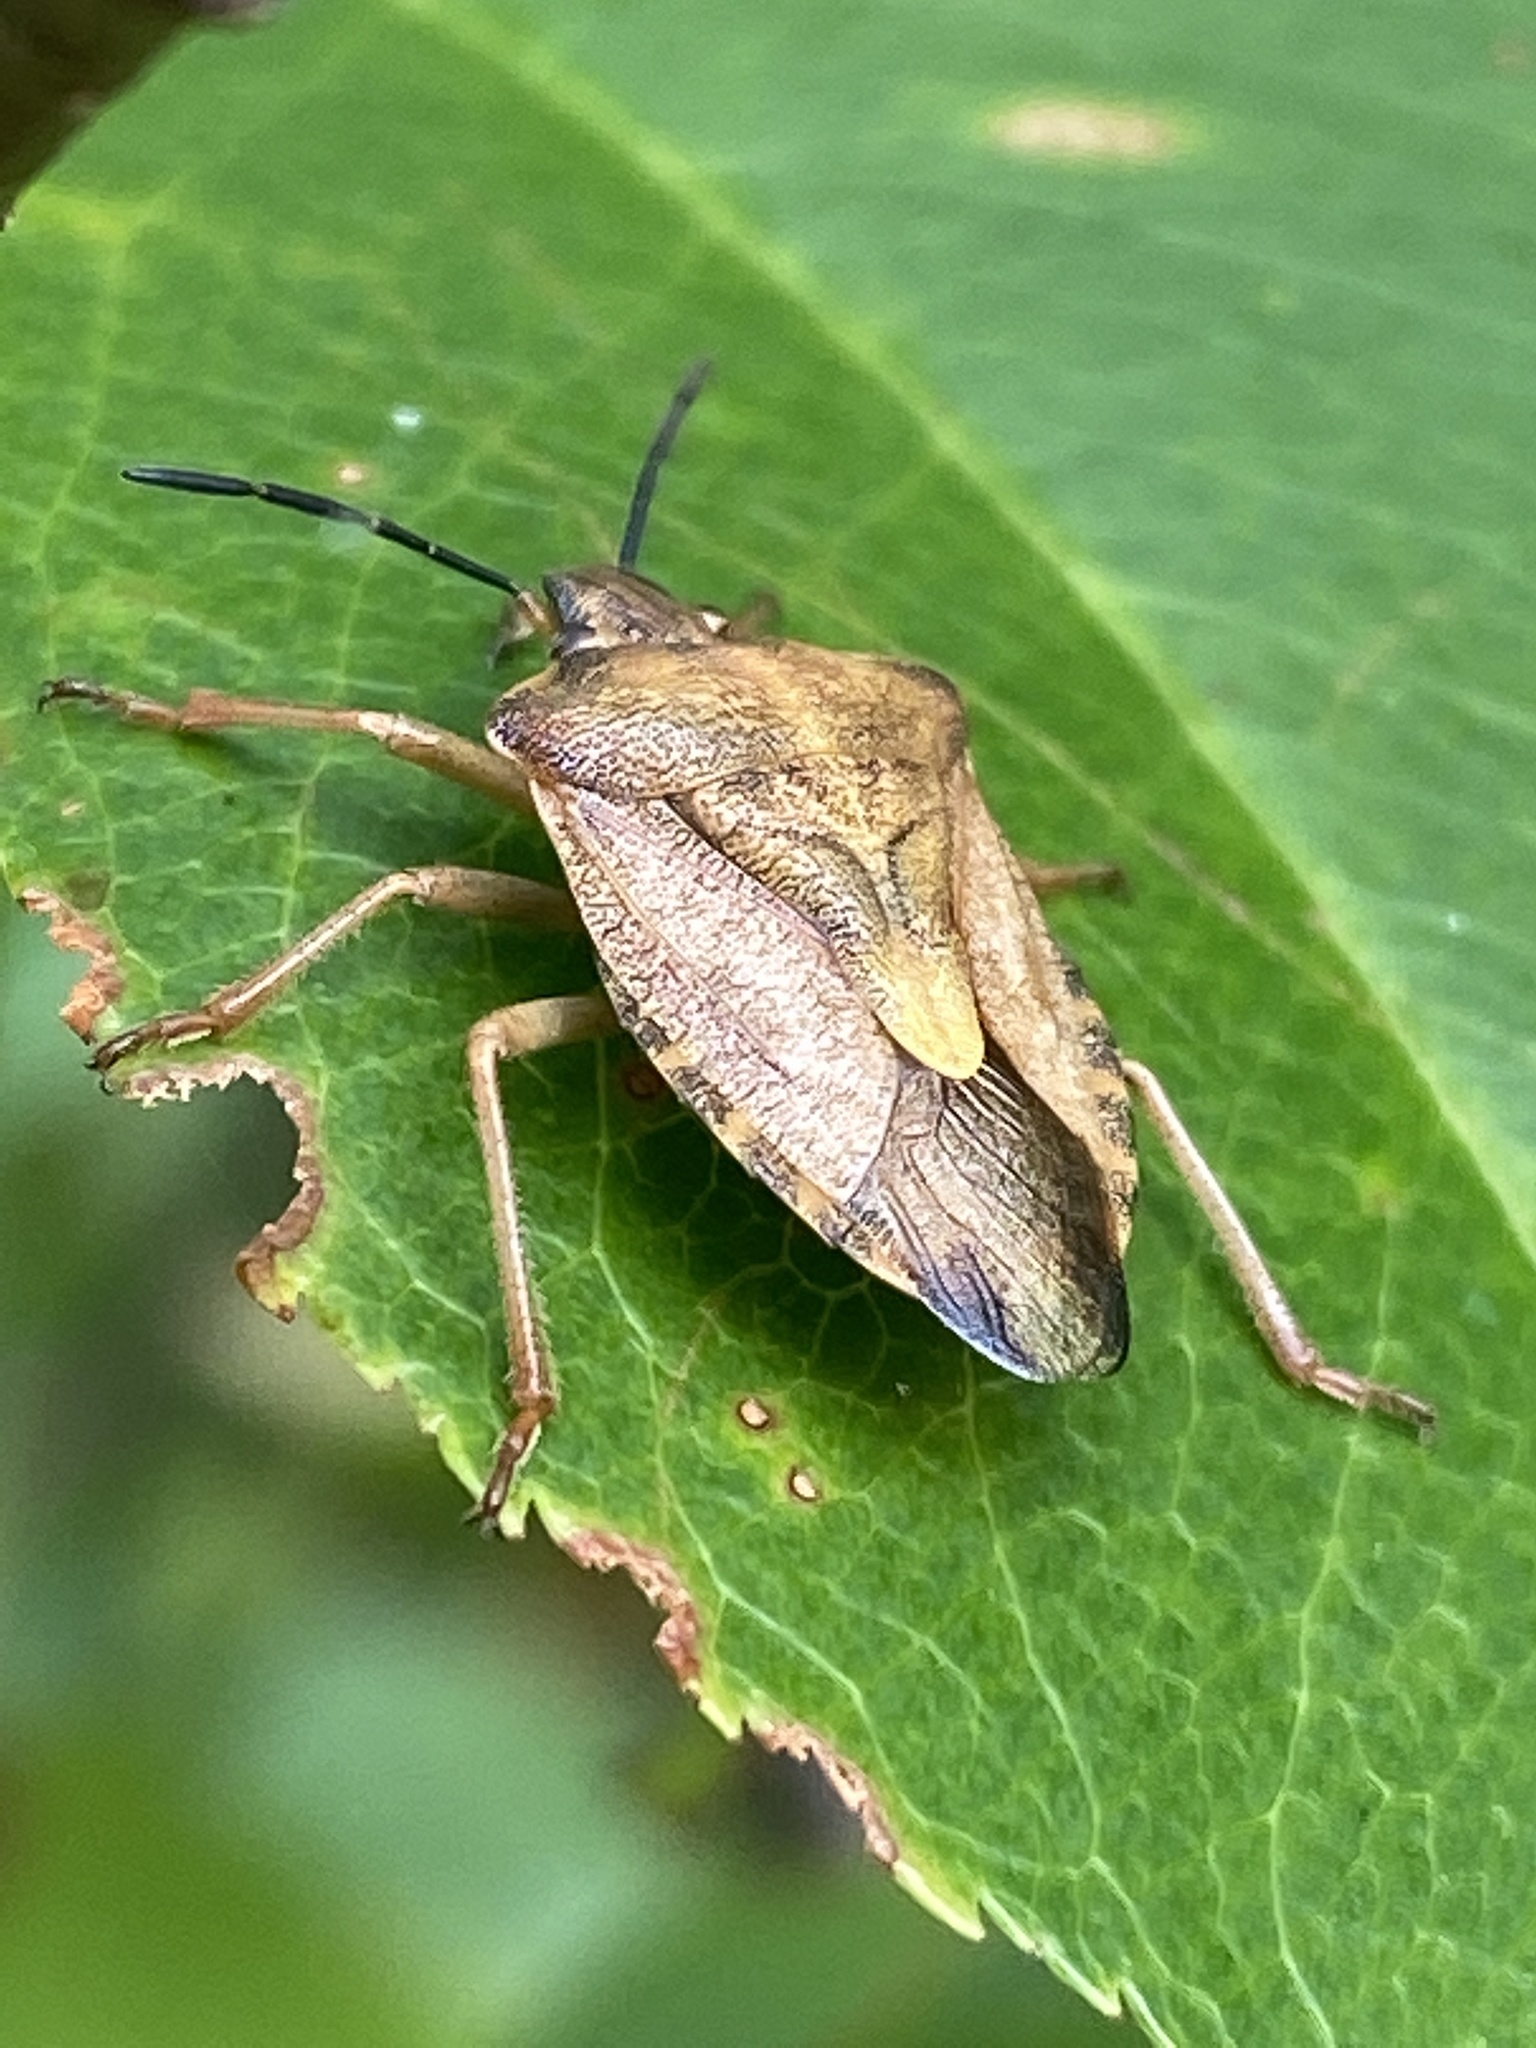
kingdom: Animalia
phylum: Arthropoda
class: Insecta
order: Hemiptera
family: Pentatomidae
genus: Carpocoris
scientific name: Carpocoris purpureipennis
